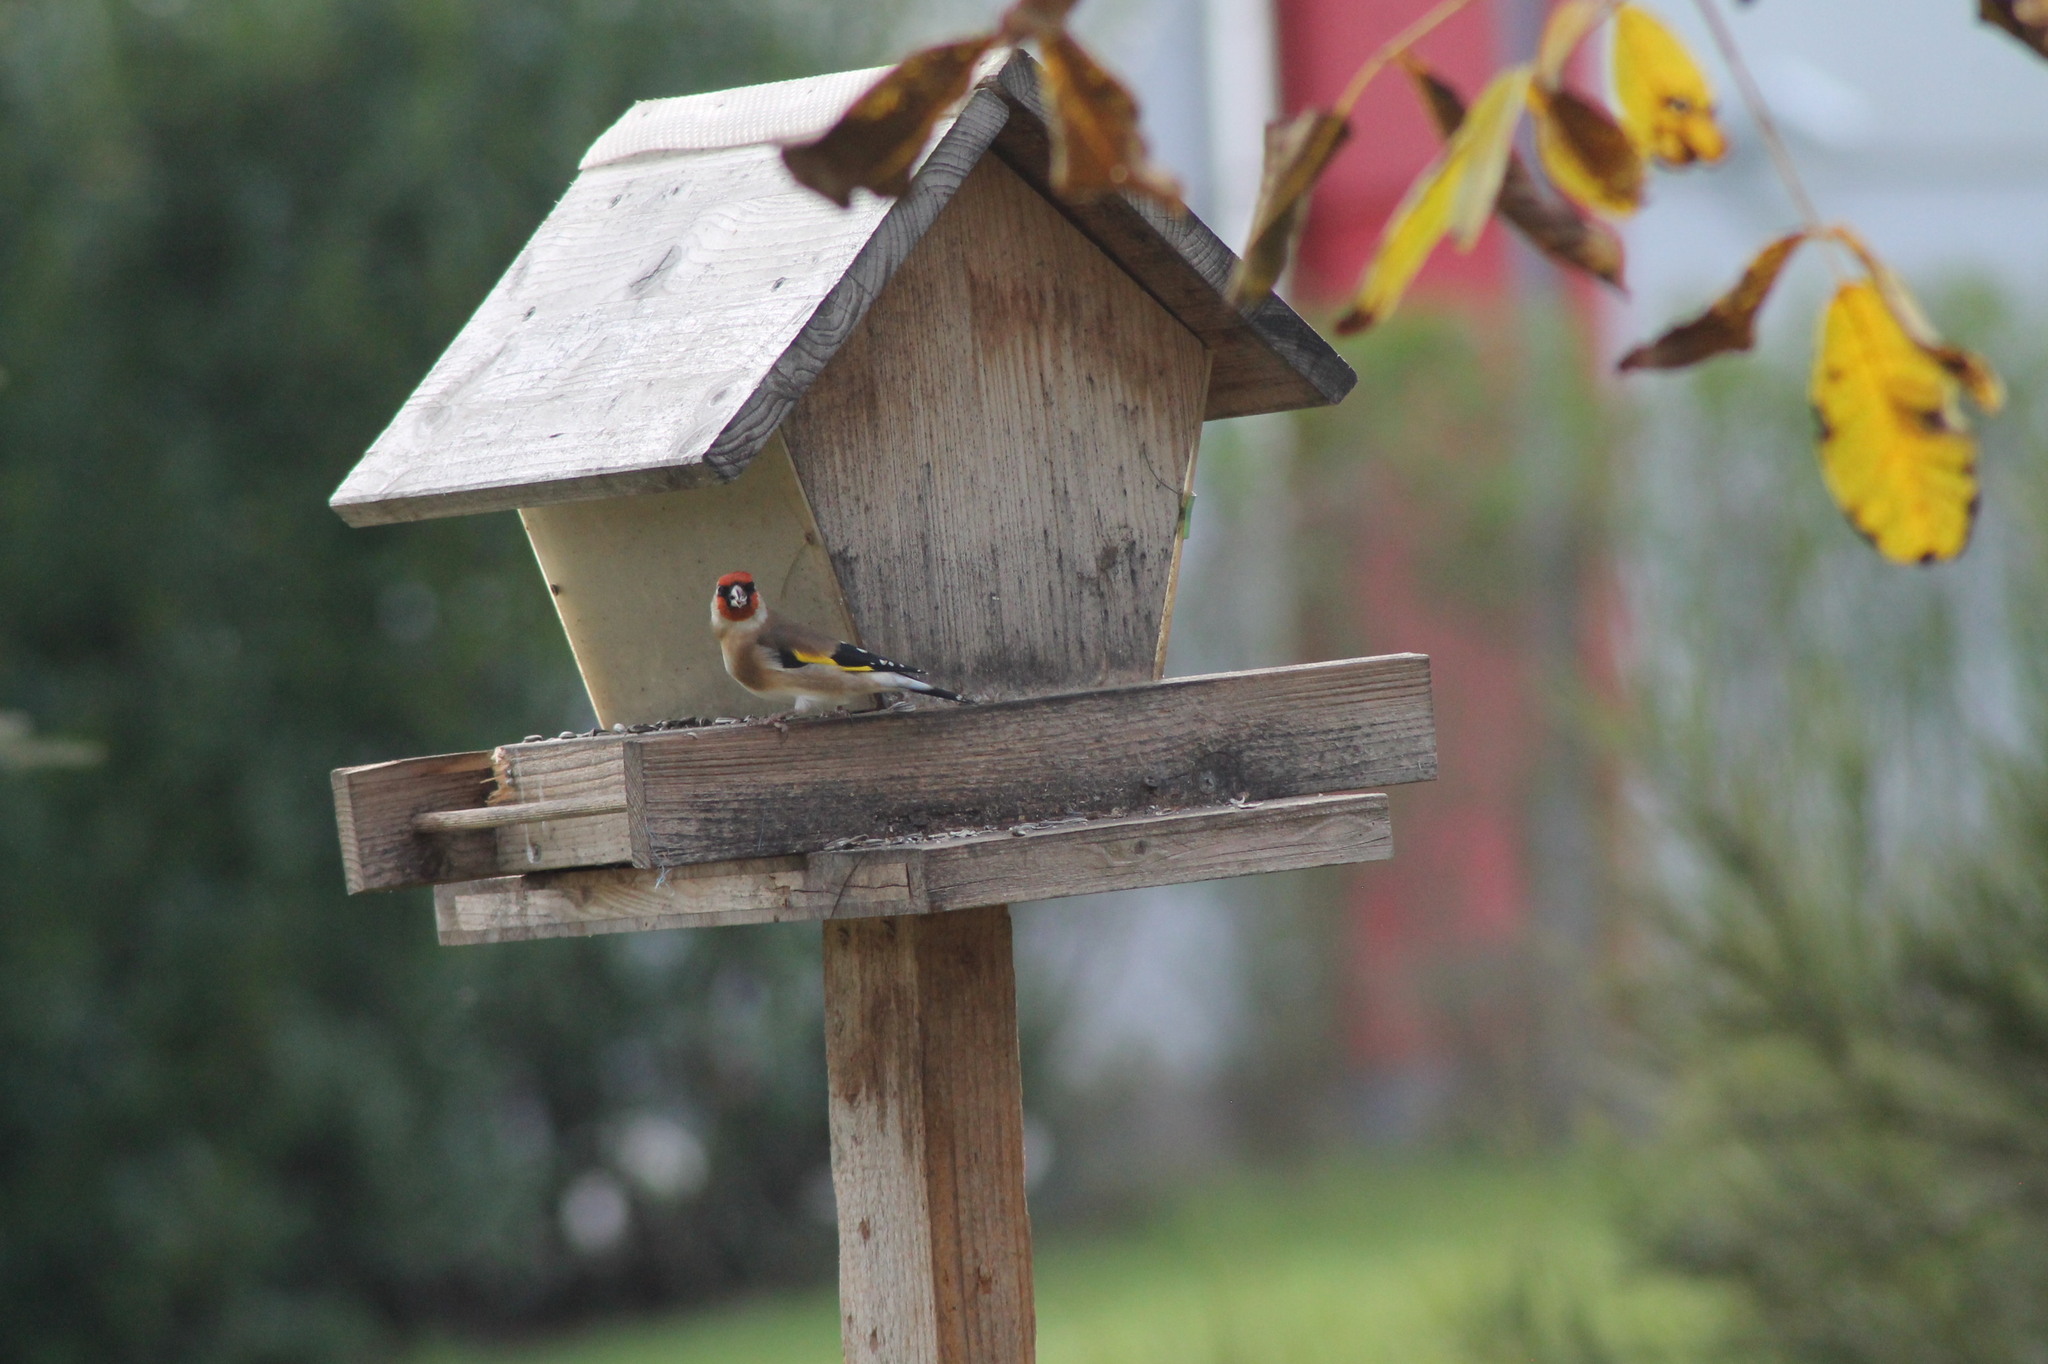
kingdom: Animalia
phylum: Chordata
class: Aves
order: Passeriformes
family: Fringillidae
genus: Carduelis
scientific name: Carduelis carduelis
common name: European goldfinch
